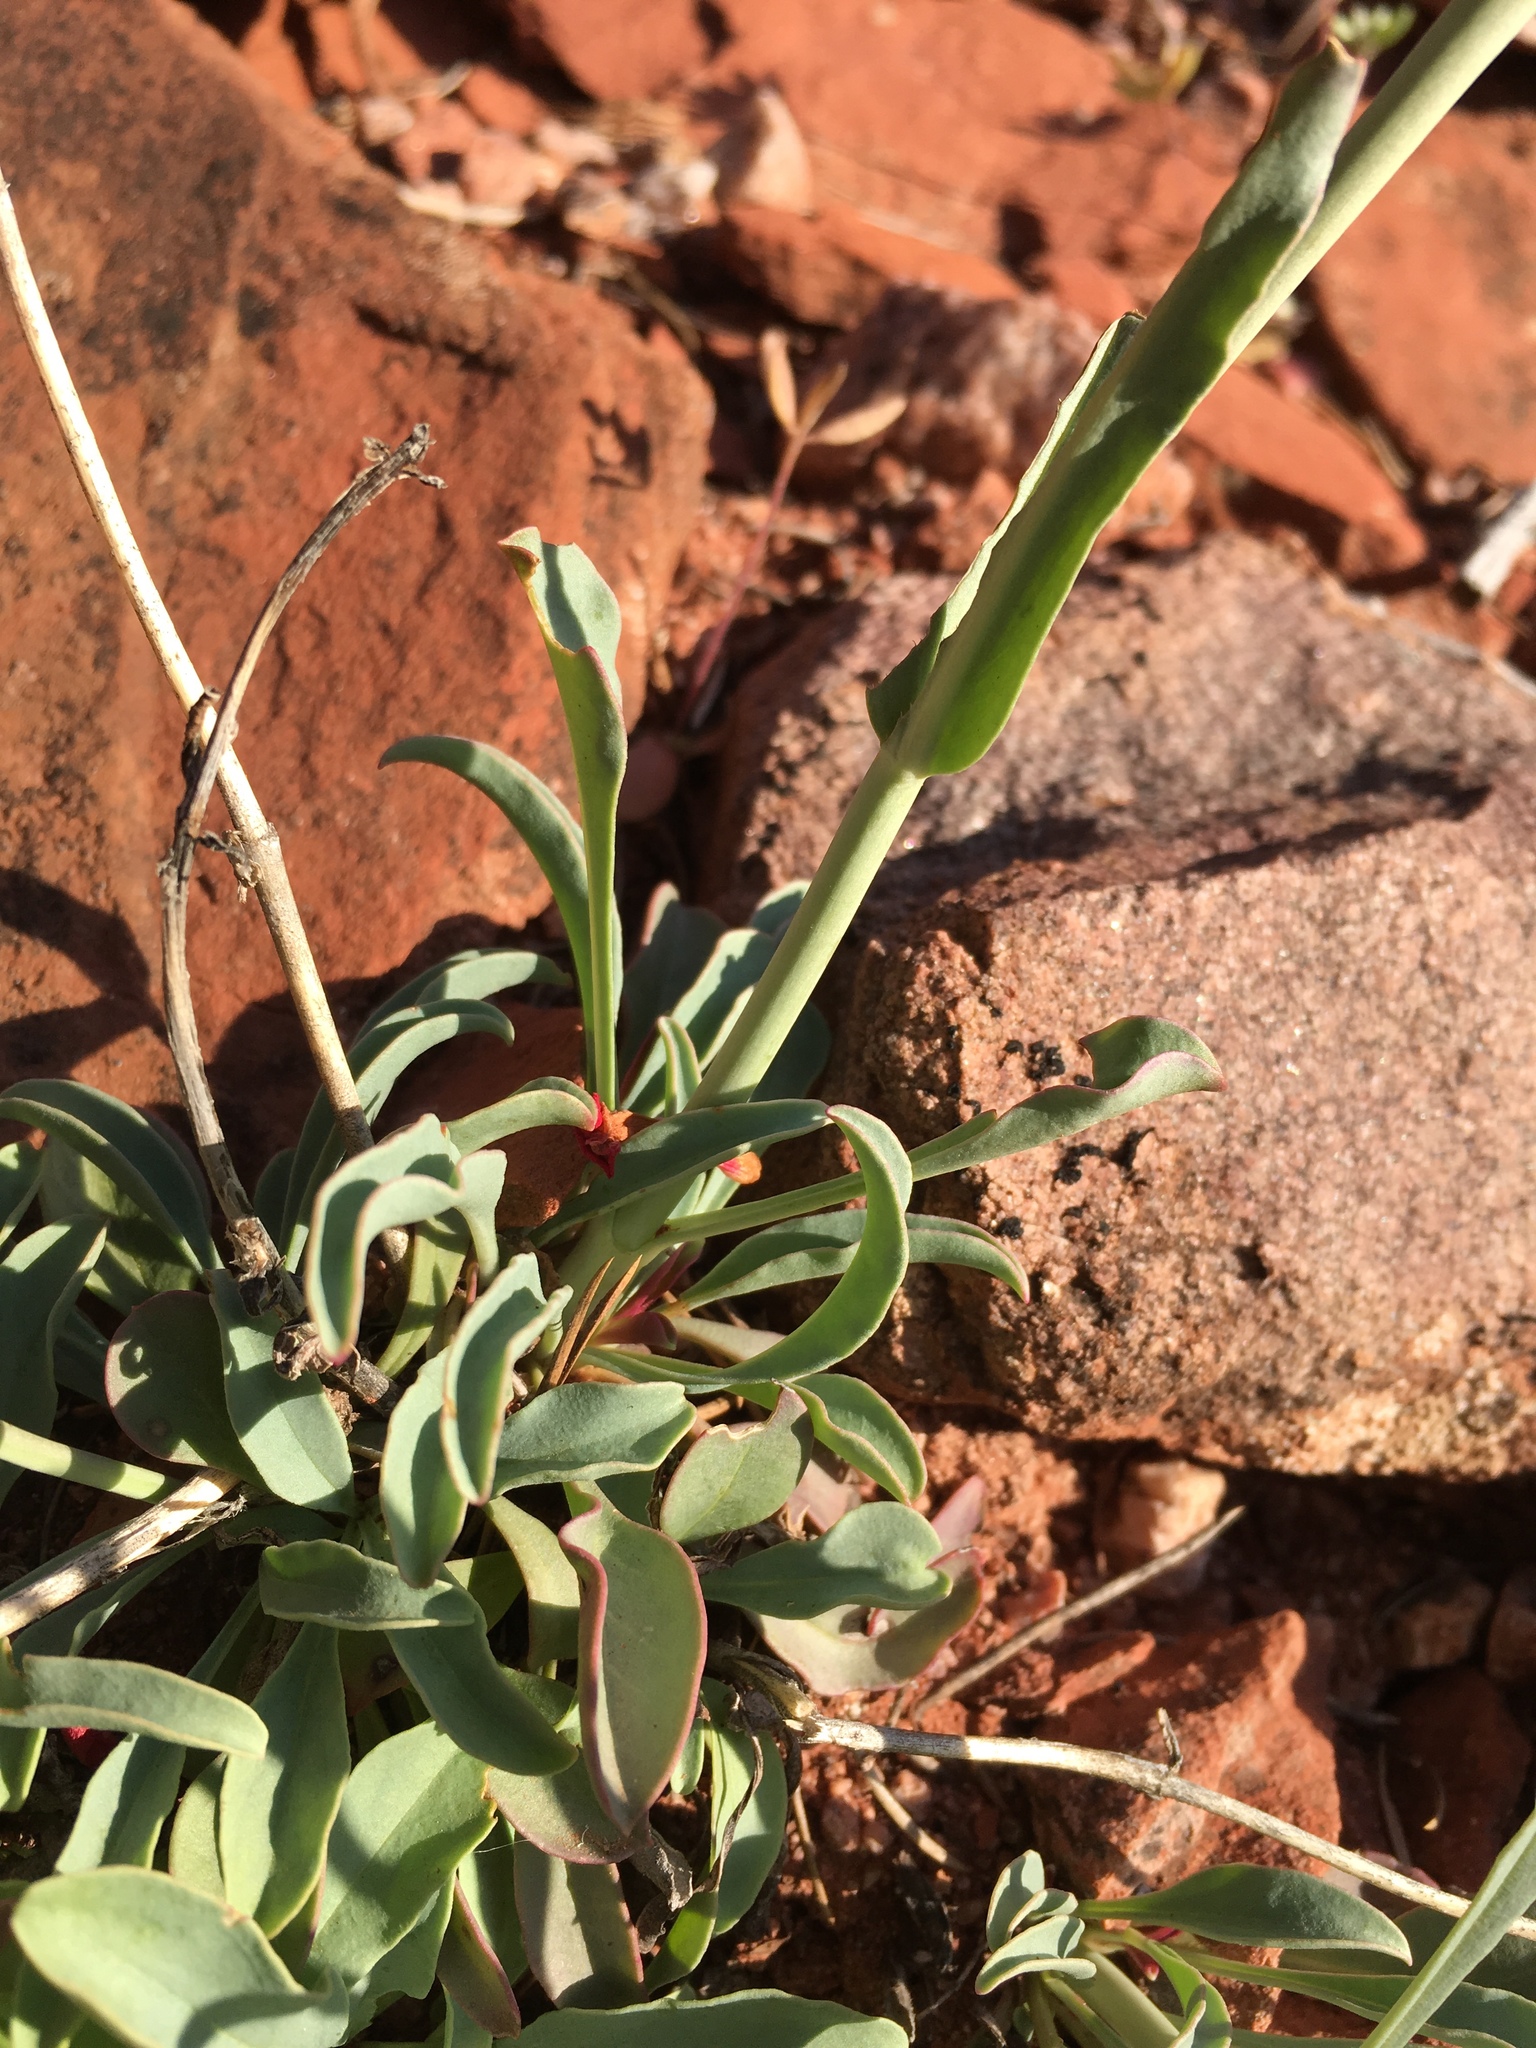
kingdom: Plantae
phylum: Tracheophyta
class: Magnoliopsida
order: Lamiales
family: Plantaginaceae
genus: Penstemon
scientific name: Penstemon utahensis
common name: Utah penstemon
